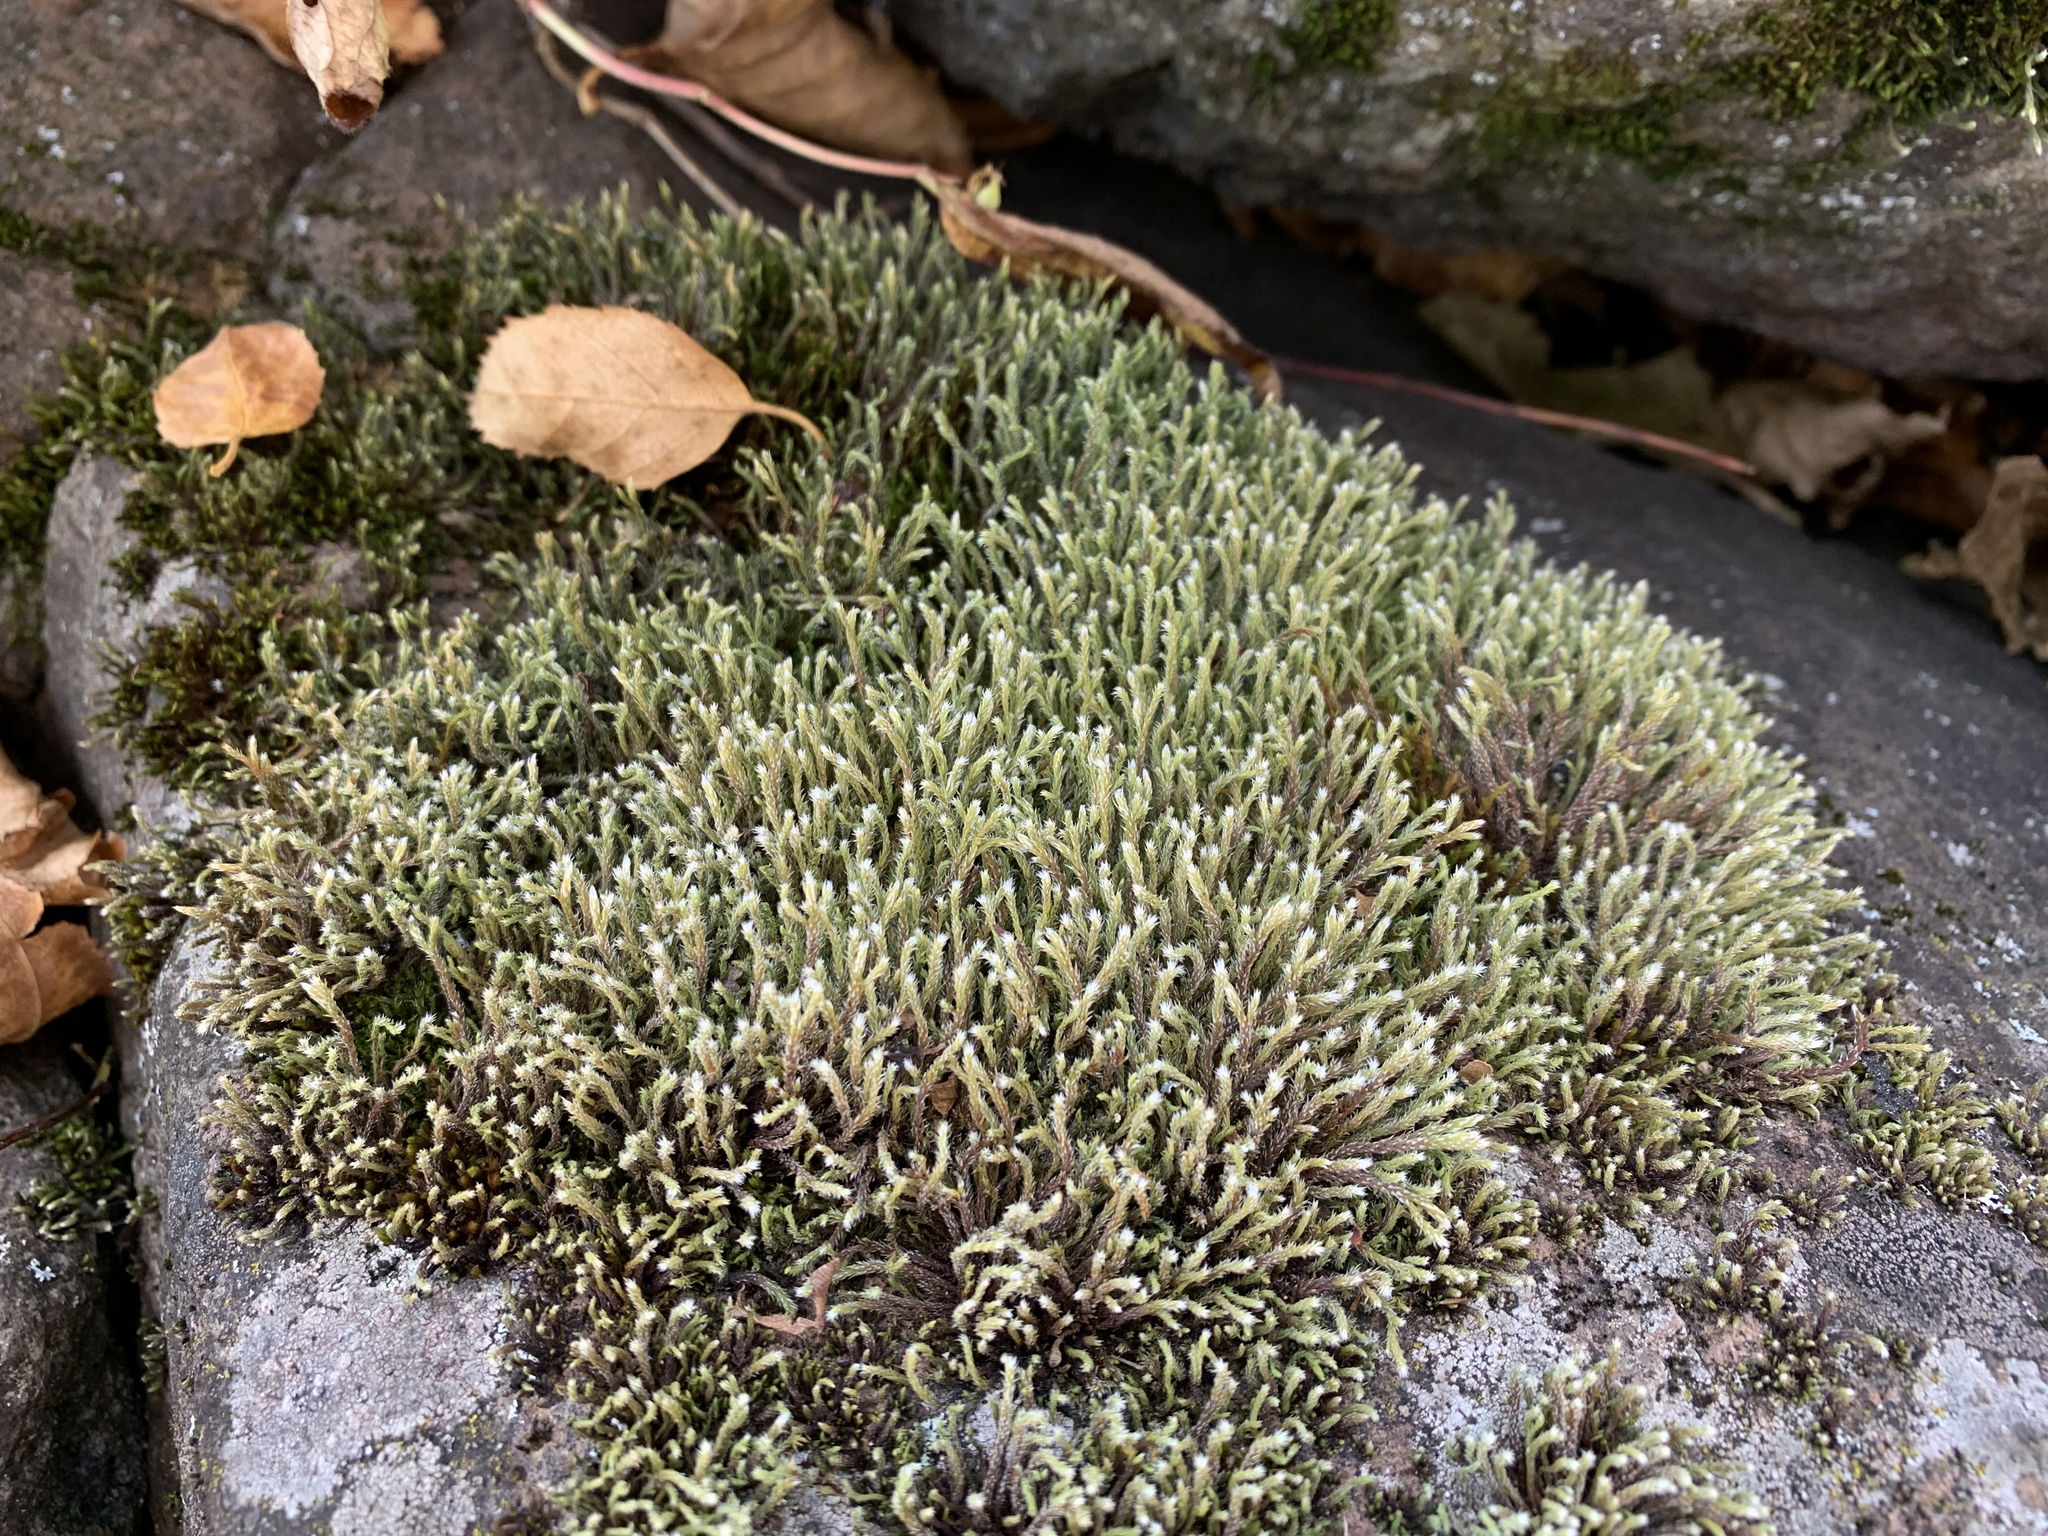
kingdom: Plantae
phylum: Bryophyta
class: Bryopsida
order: Hedwigiales
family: Hedwigiaceae
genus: Hedwigia
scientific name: Hedwigia ciliata
